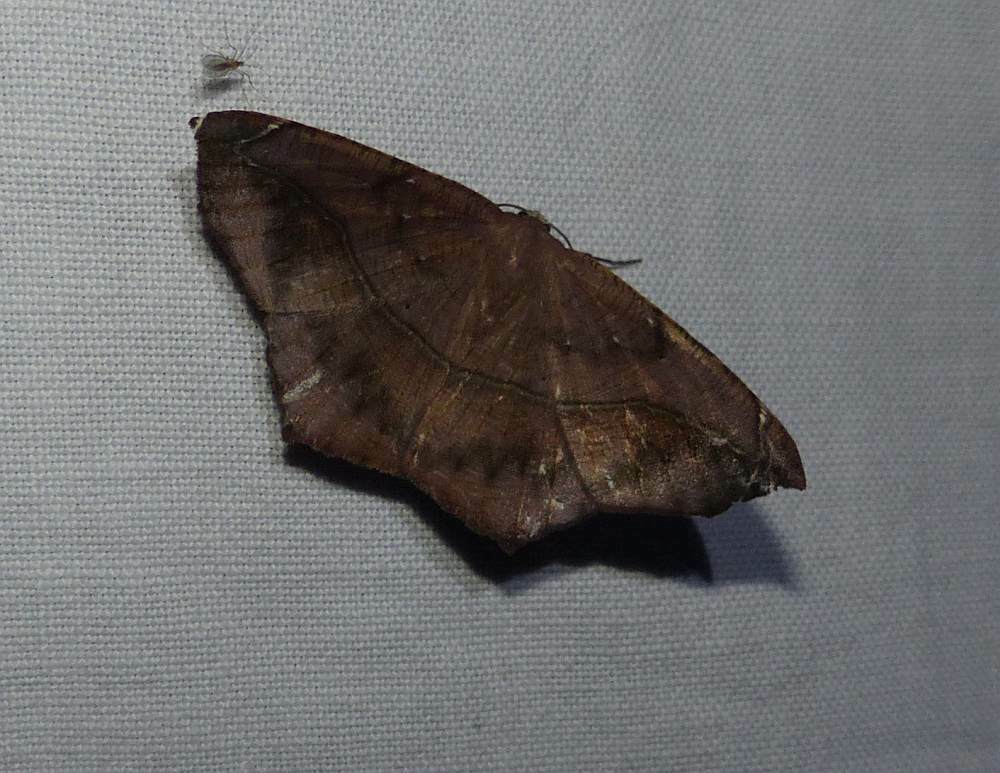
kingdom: Animalia
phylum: Arthropoda
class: Insecta
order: Lepidoptera
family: Geometridae
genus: Prochoerodes
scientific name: Prochoerodes lineola
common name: Large maple spanworm
